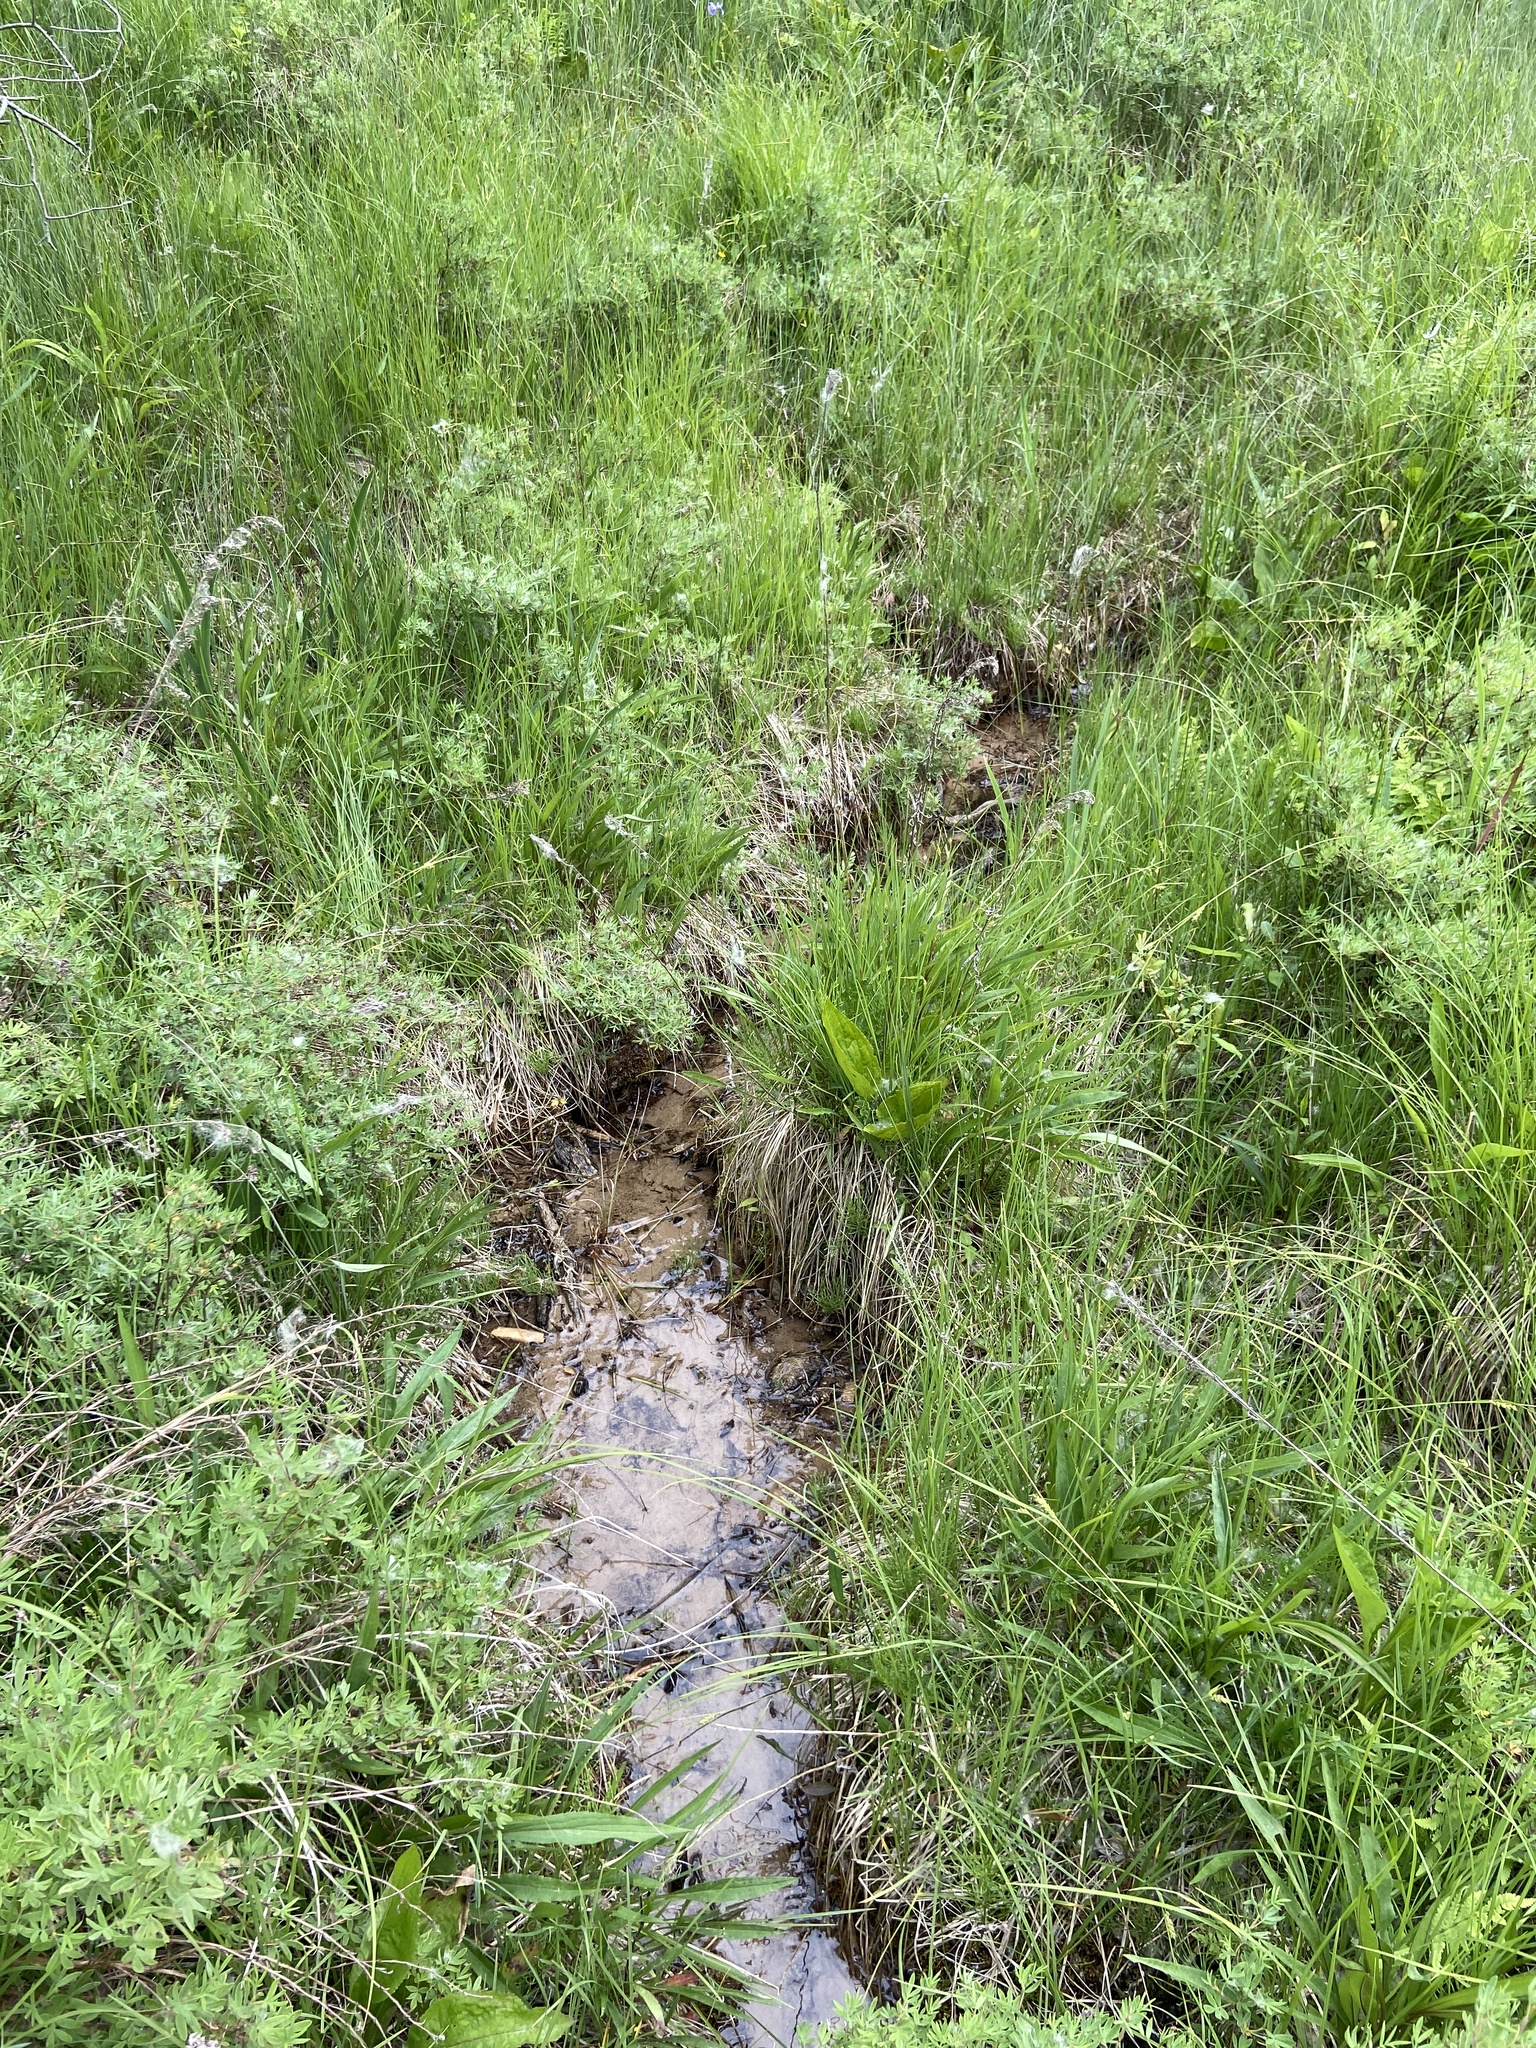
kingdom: Plantae
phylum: Tracheophyta
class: Liliopsida
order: Poales
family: Cyperaceae
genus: Carex
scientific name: Carex leptalea
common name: Bristly-stalked sedge
